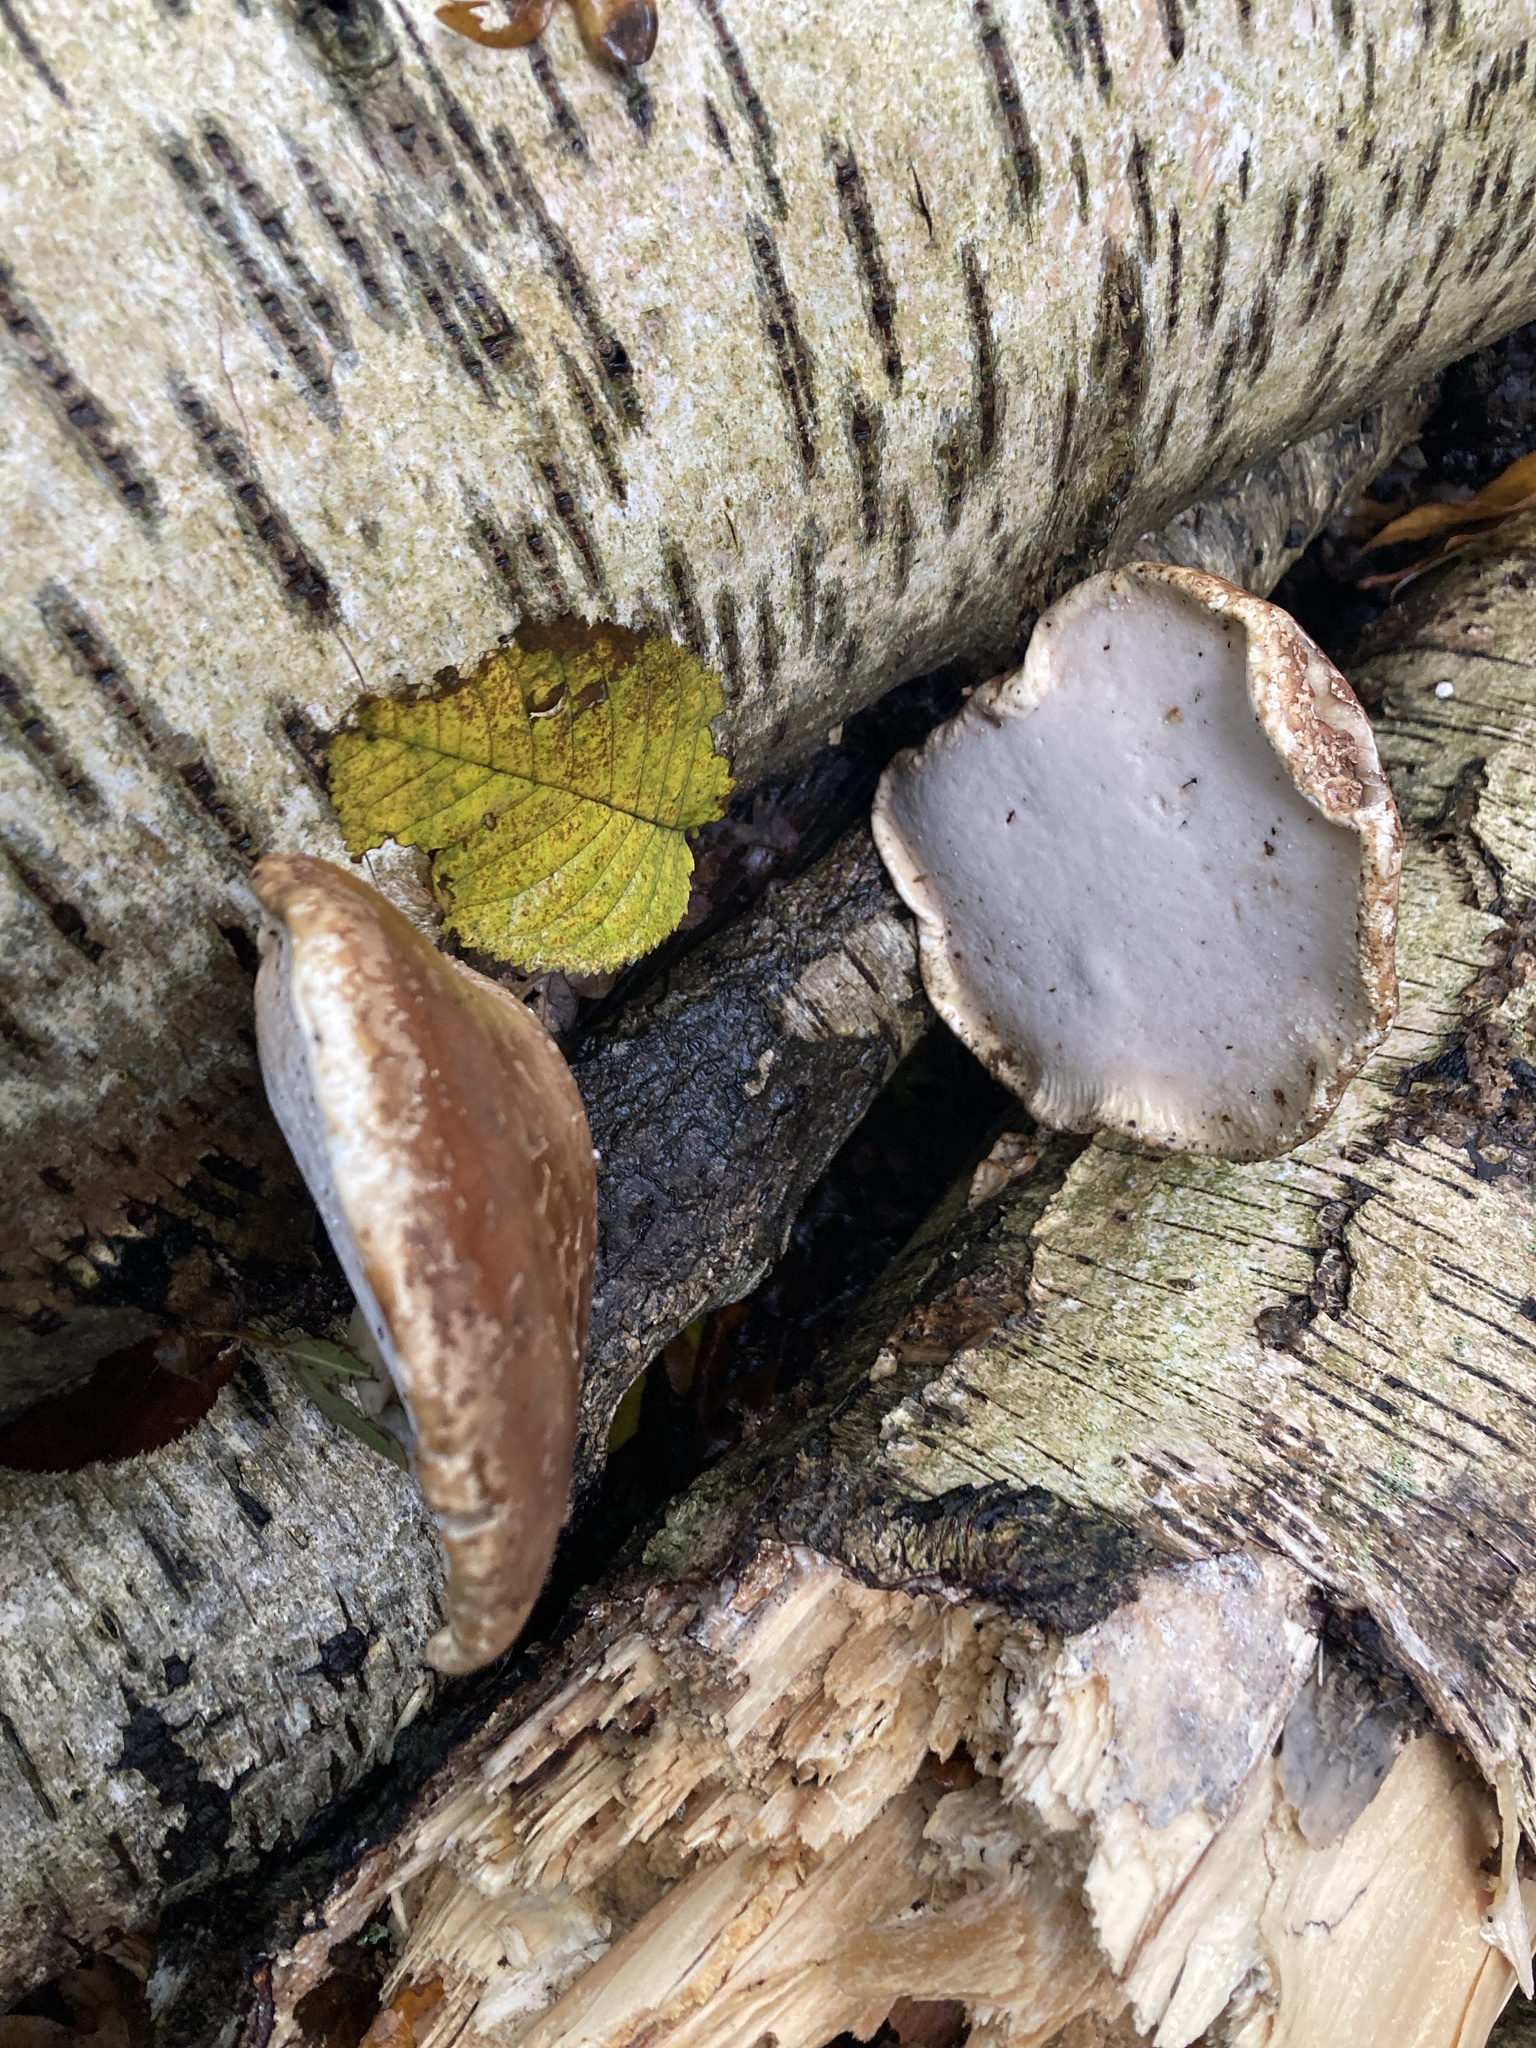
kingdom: Fungi
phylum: Basidiomycota
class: Agaricomycetes
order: Polyporales
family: Fomitopsidaceae
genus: Fomitopsis
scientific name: Fomitopsis betulina
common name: Birch polypore
